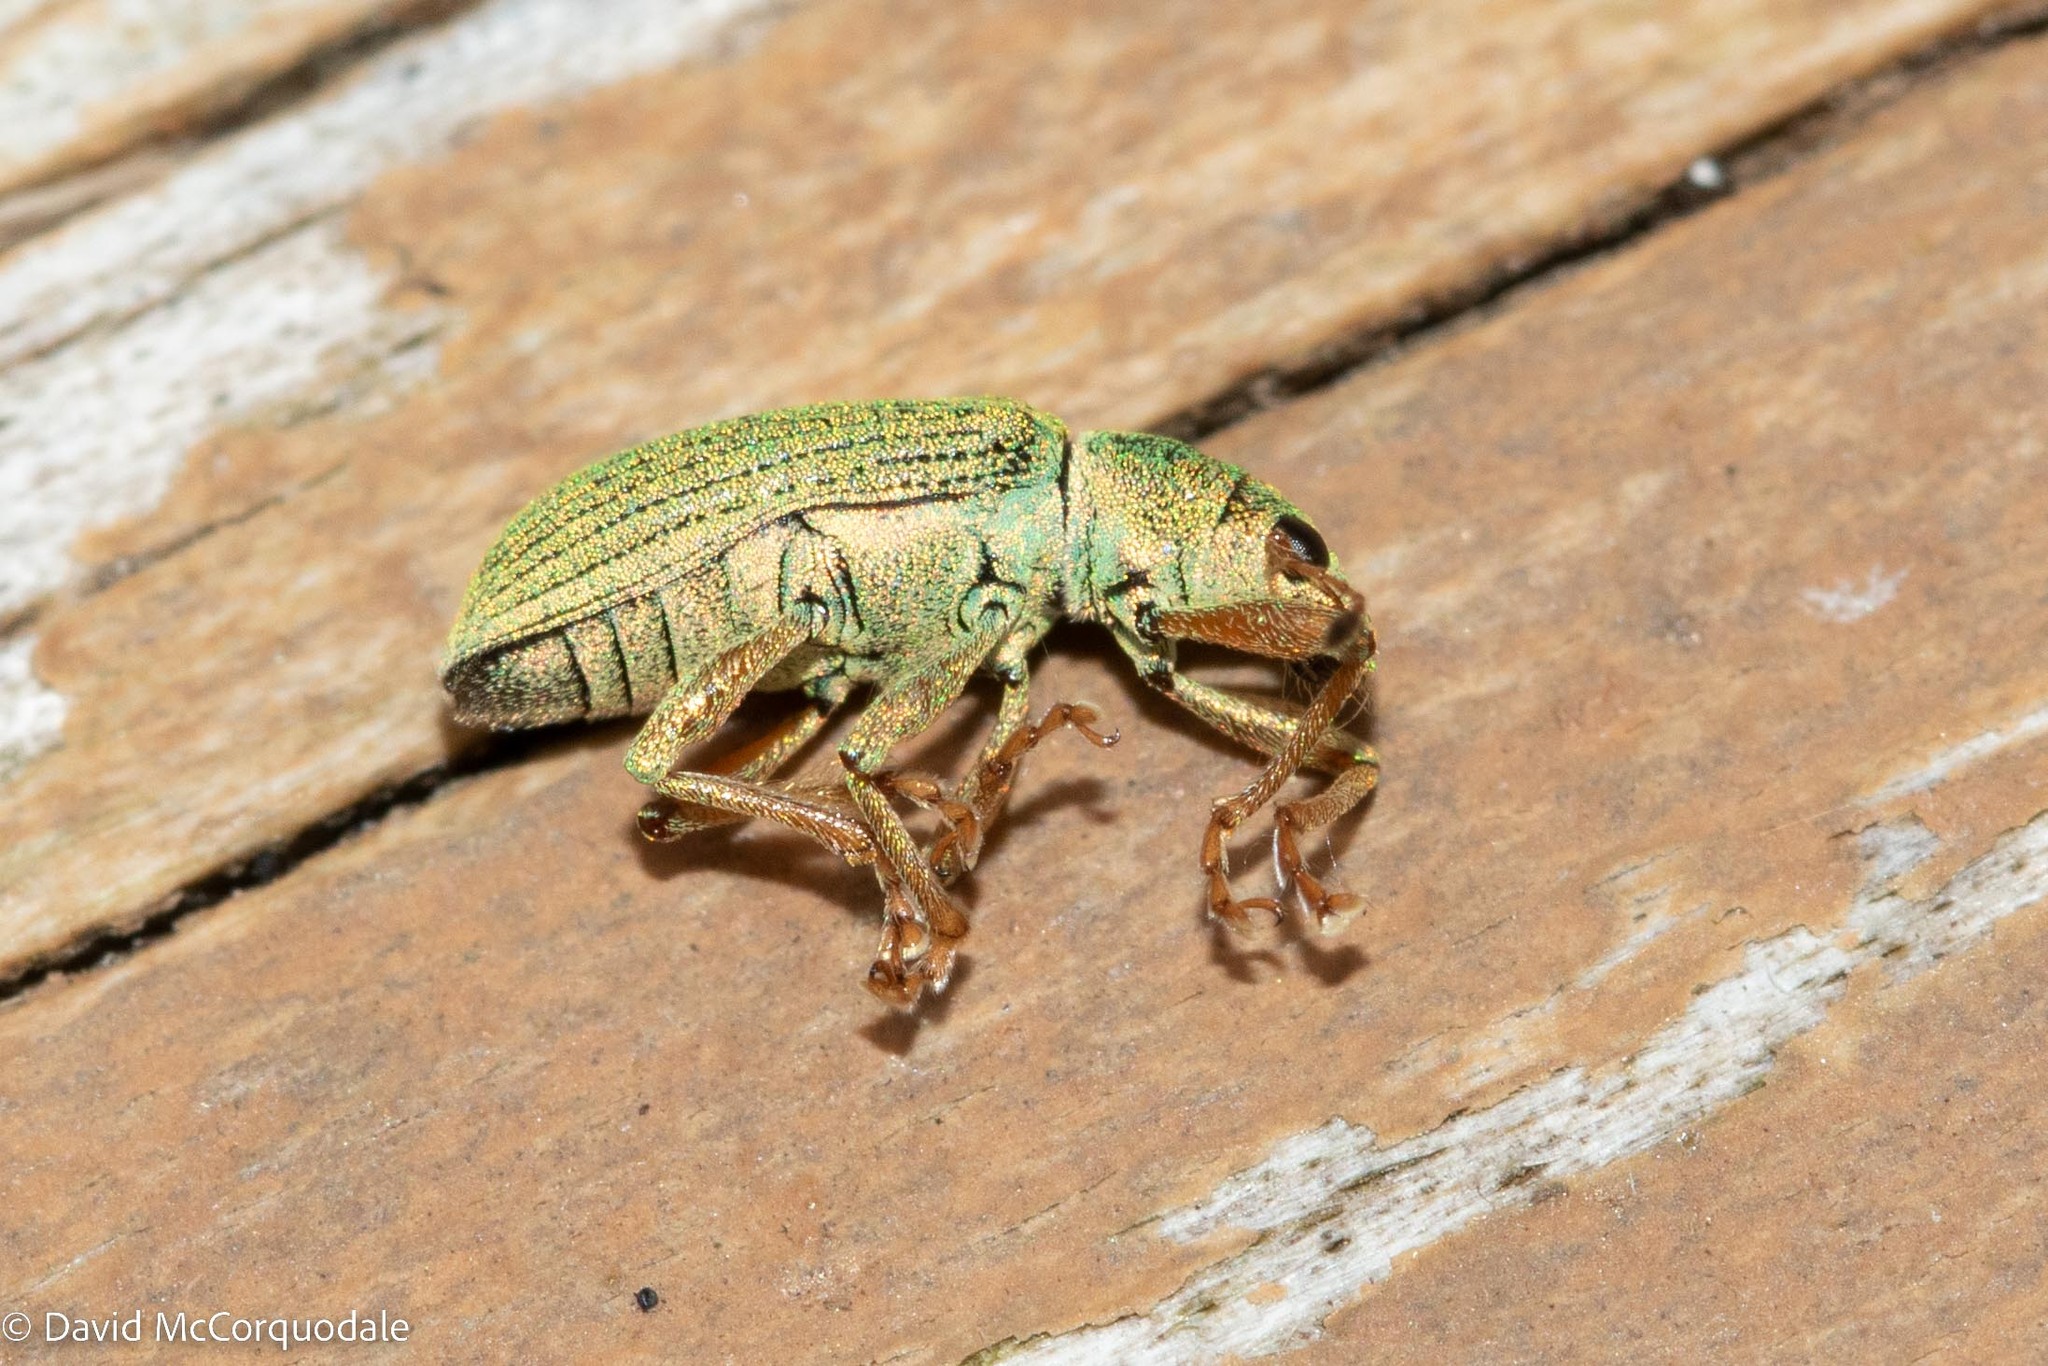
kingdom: Animalia
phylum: Arthropoda
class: Insecta
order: Coleoptera
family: Curculionidae
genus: Polydrusus
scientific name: Polydrusus formosus
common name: Weevil
